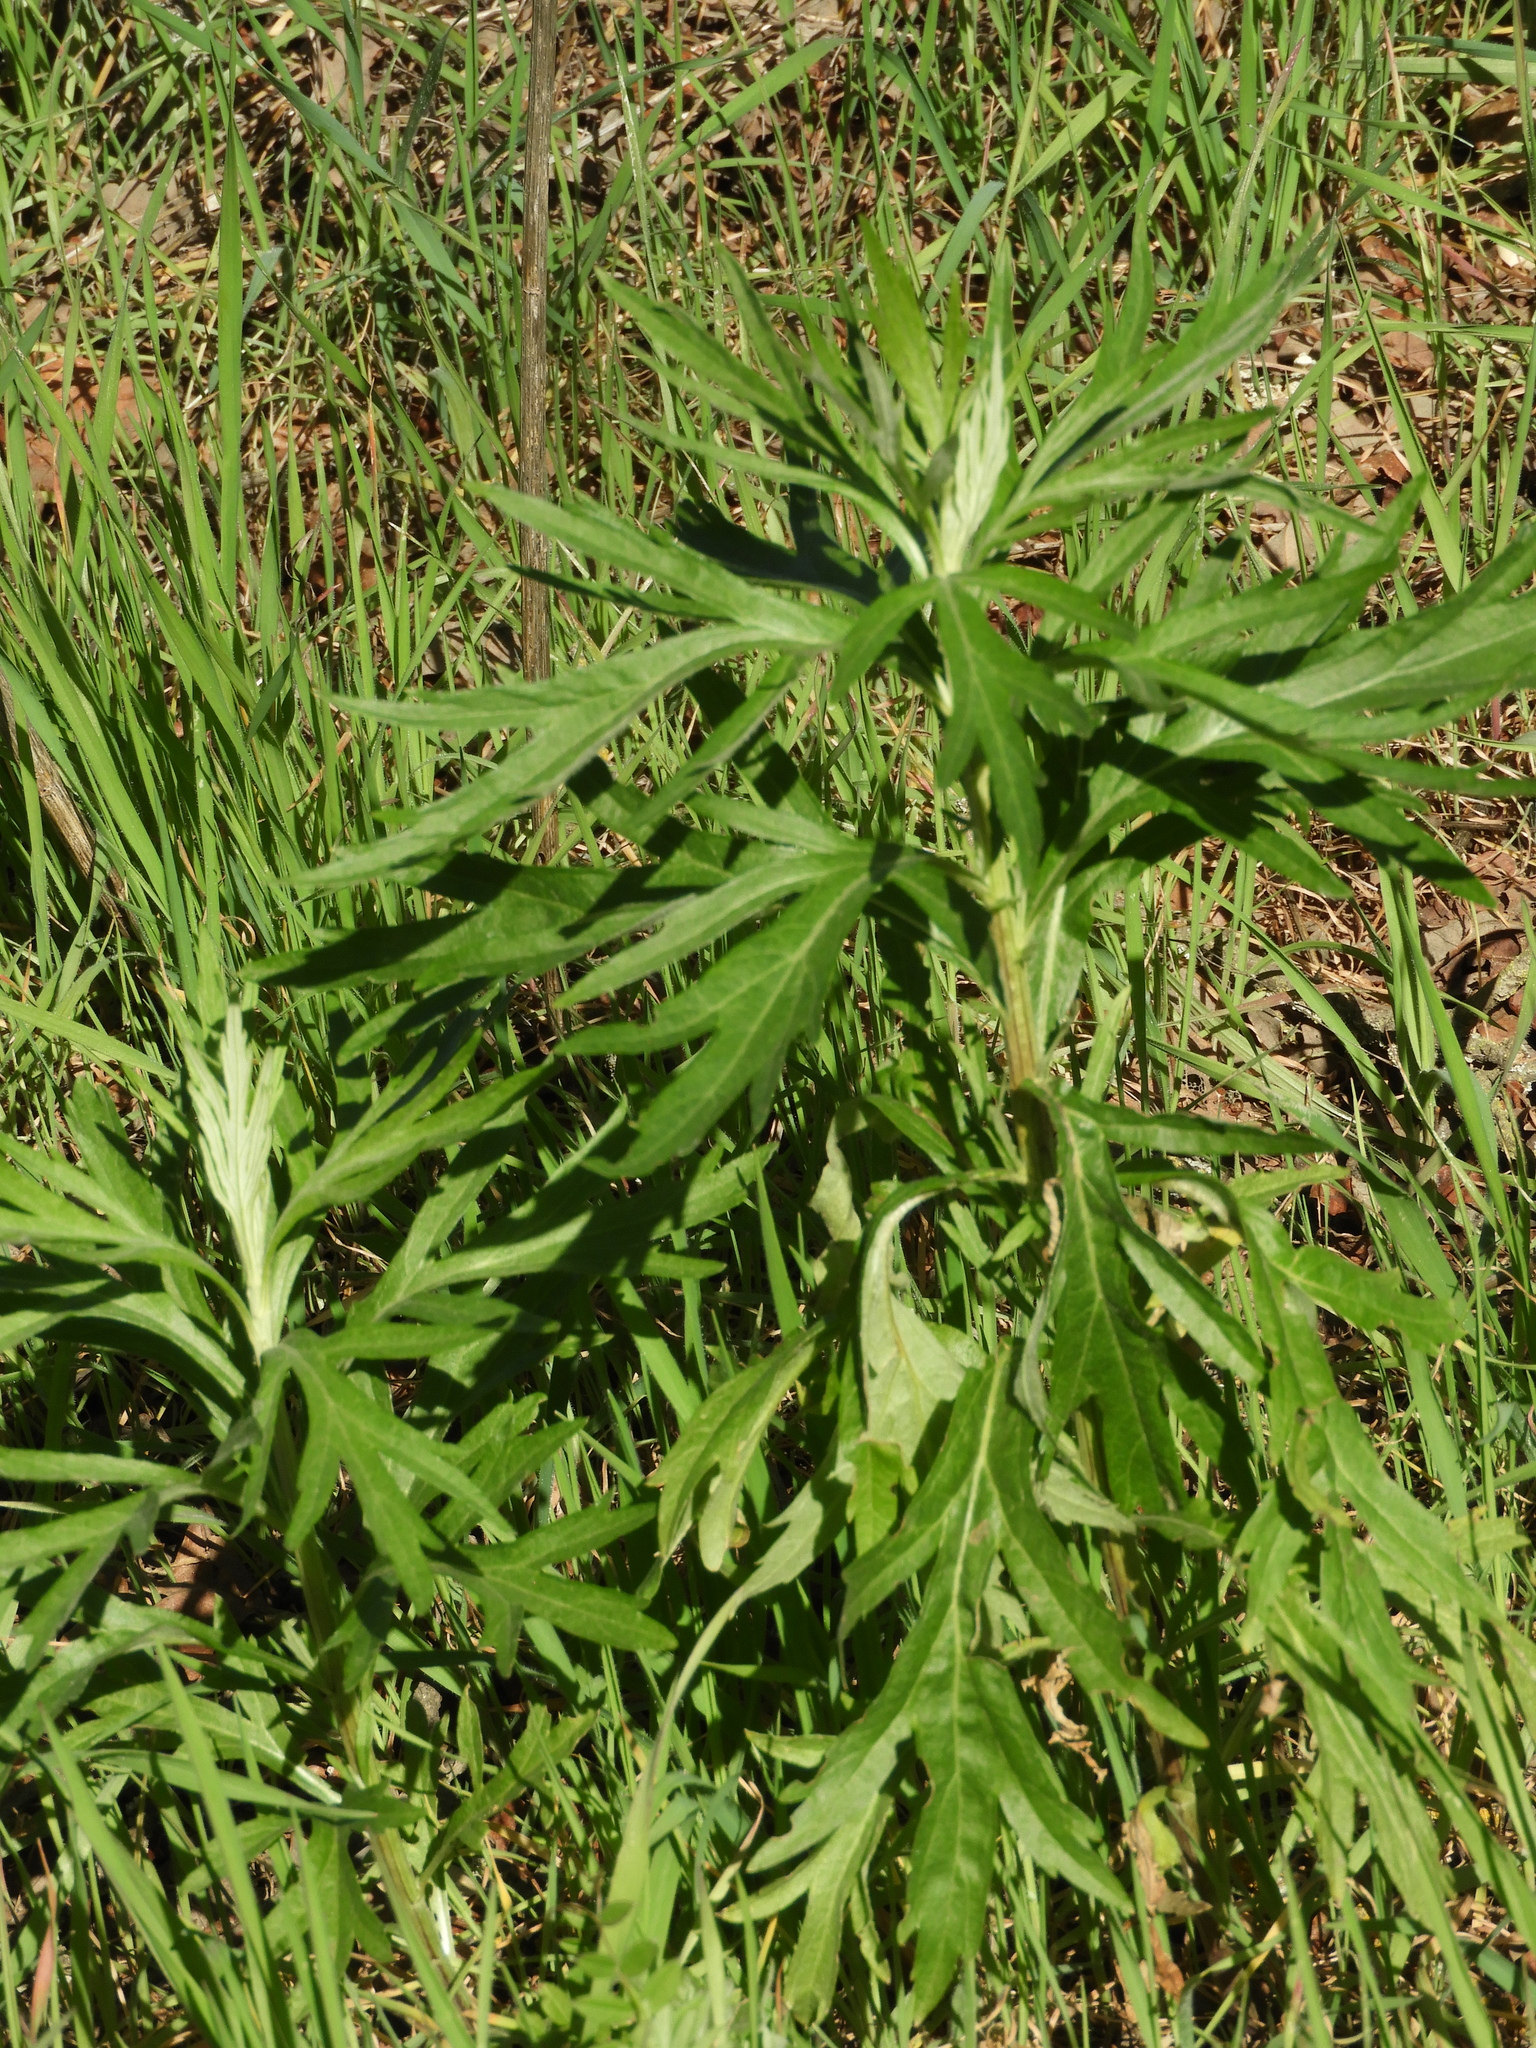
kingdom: Plantae
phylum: Tracheophyta
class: Magnoliopsida
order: Asterales
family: Asteraceae
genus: Artemisia
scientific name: Artemisia douglasiana
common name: Northwest mugwort
